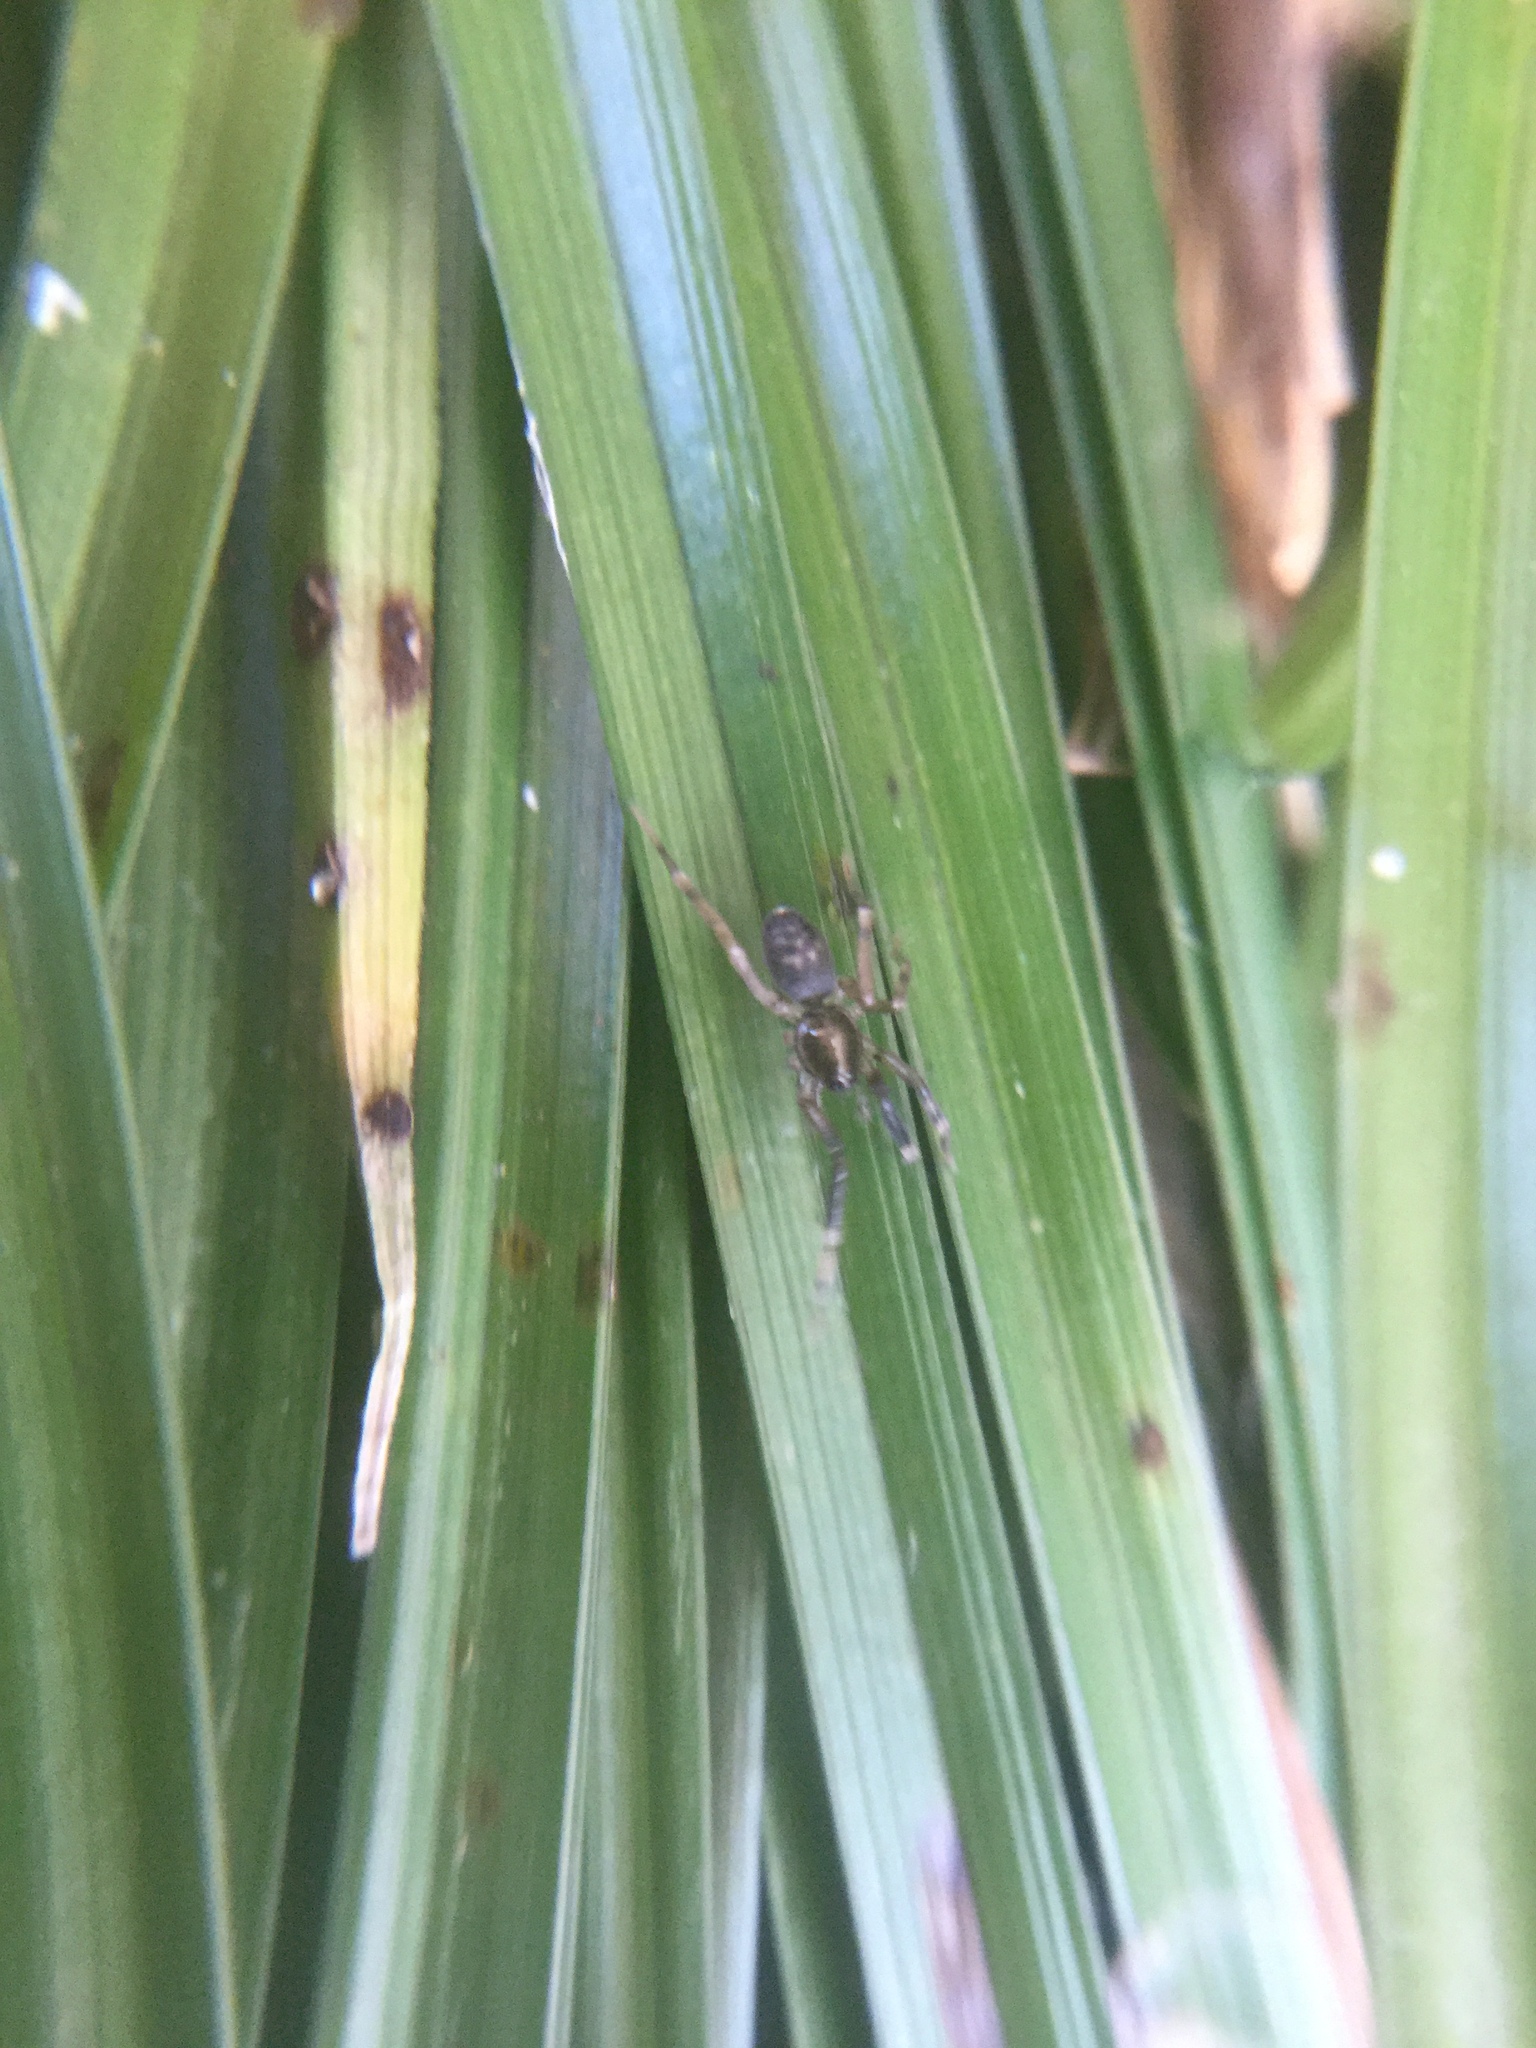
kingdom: Animalia
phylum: Arthropoda
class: Arachnida
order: Araneae
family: Phrurolithidae
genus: Phrurotimpus
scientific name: Phrurotimpus borealis
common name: Greater ant-mimic corinne spider
